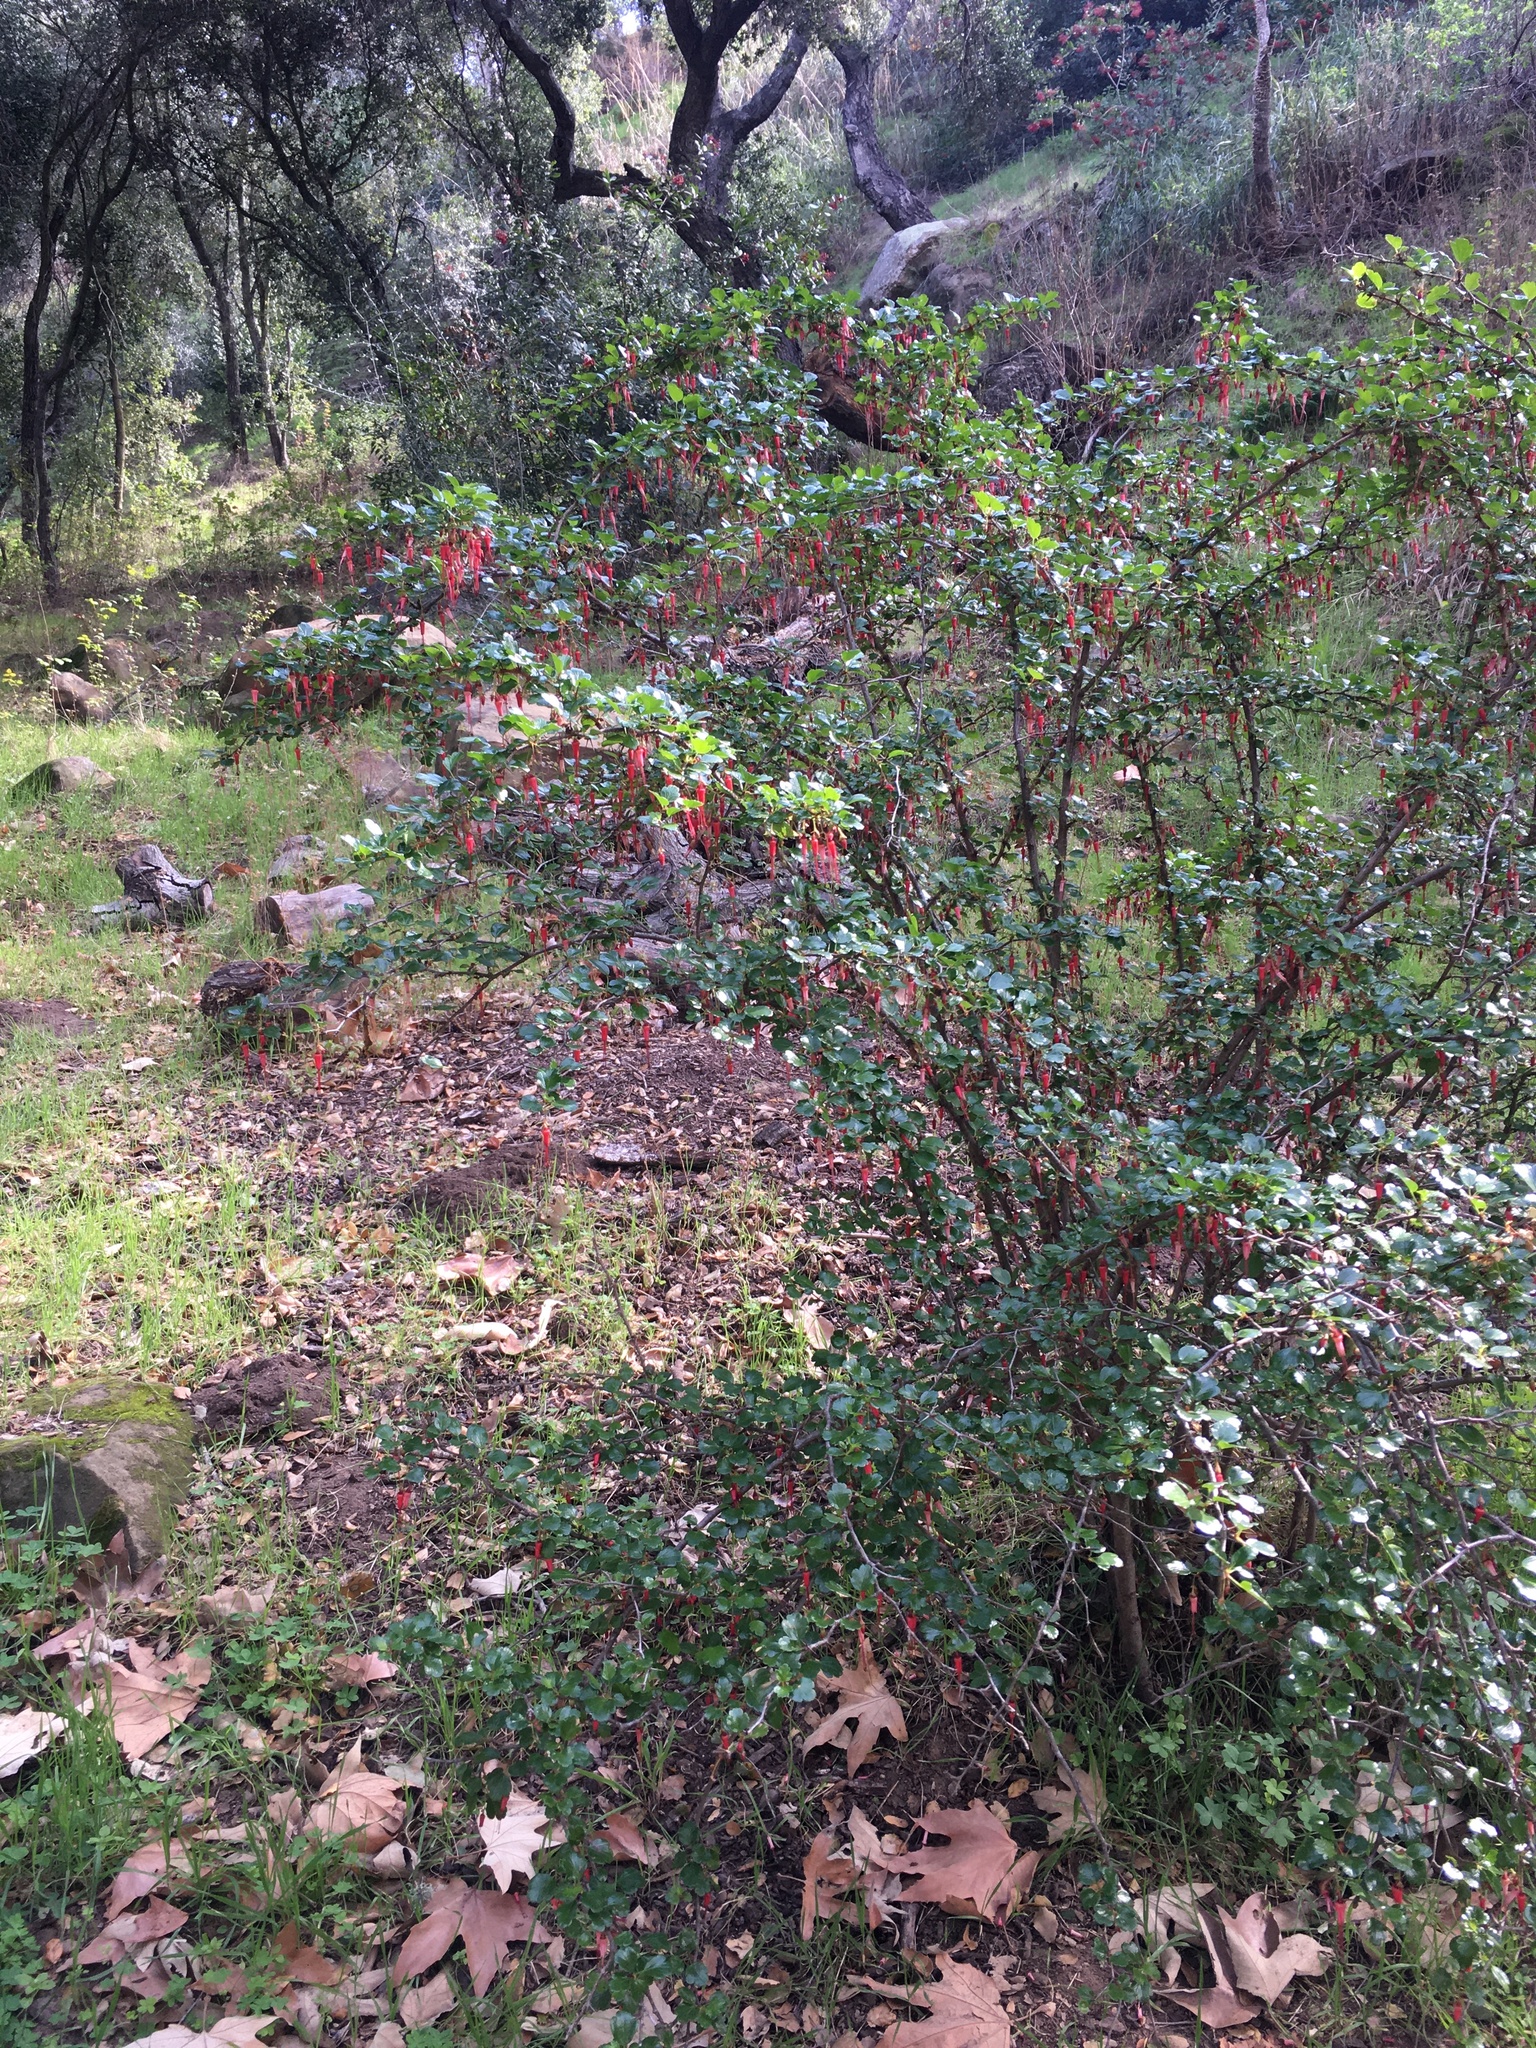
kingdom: Plantae
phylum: Tracheophyta
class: Magnoliopsida
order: Saxifragales
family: Grossulariaceae
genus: Ribes
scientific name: Ribes speciosum
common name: Fuchsia-flower gooseberry
